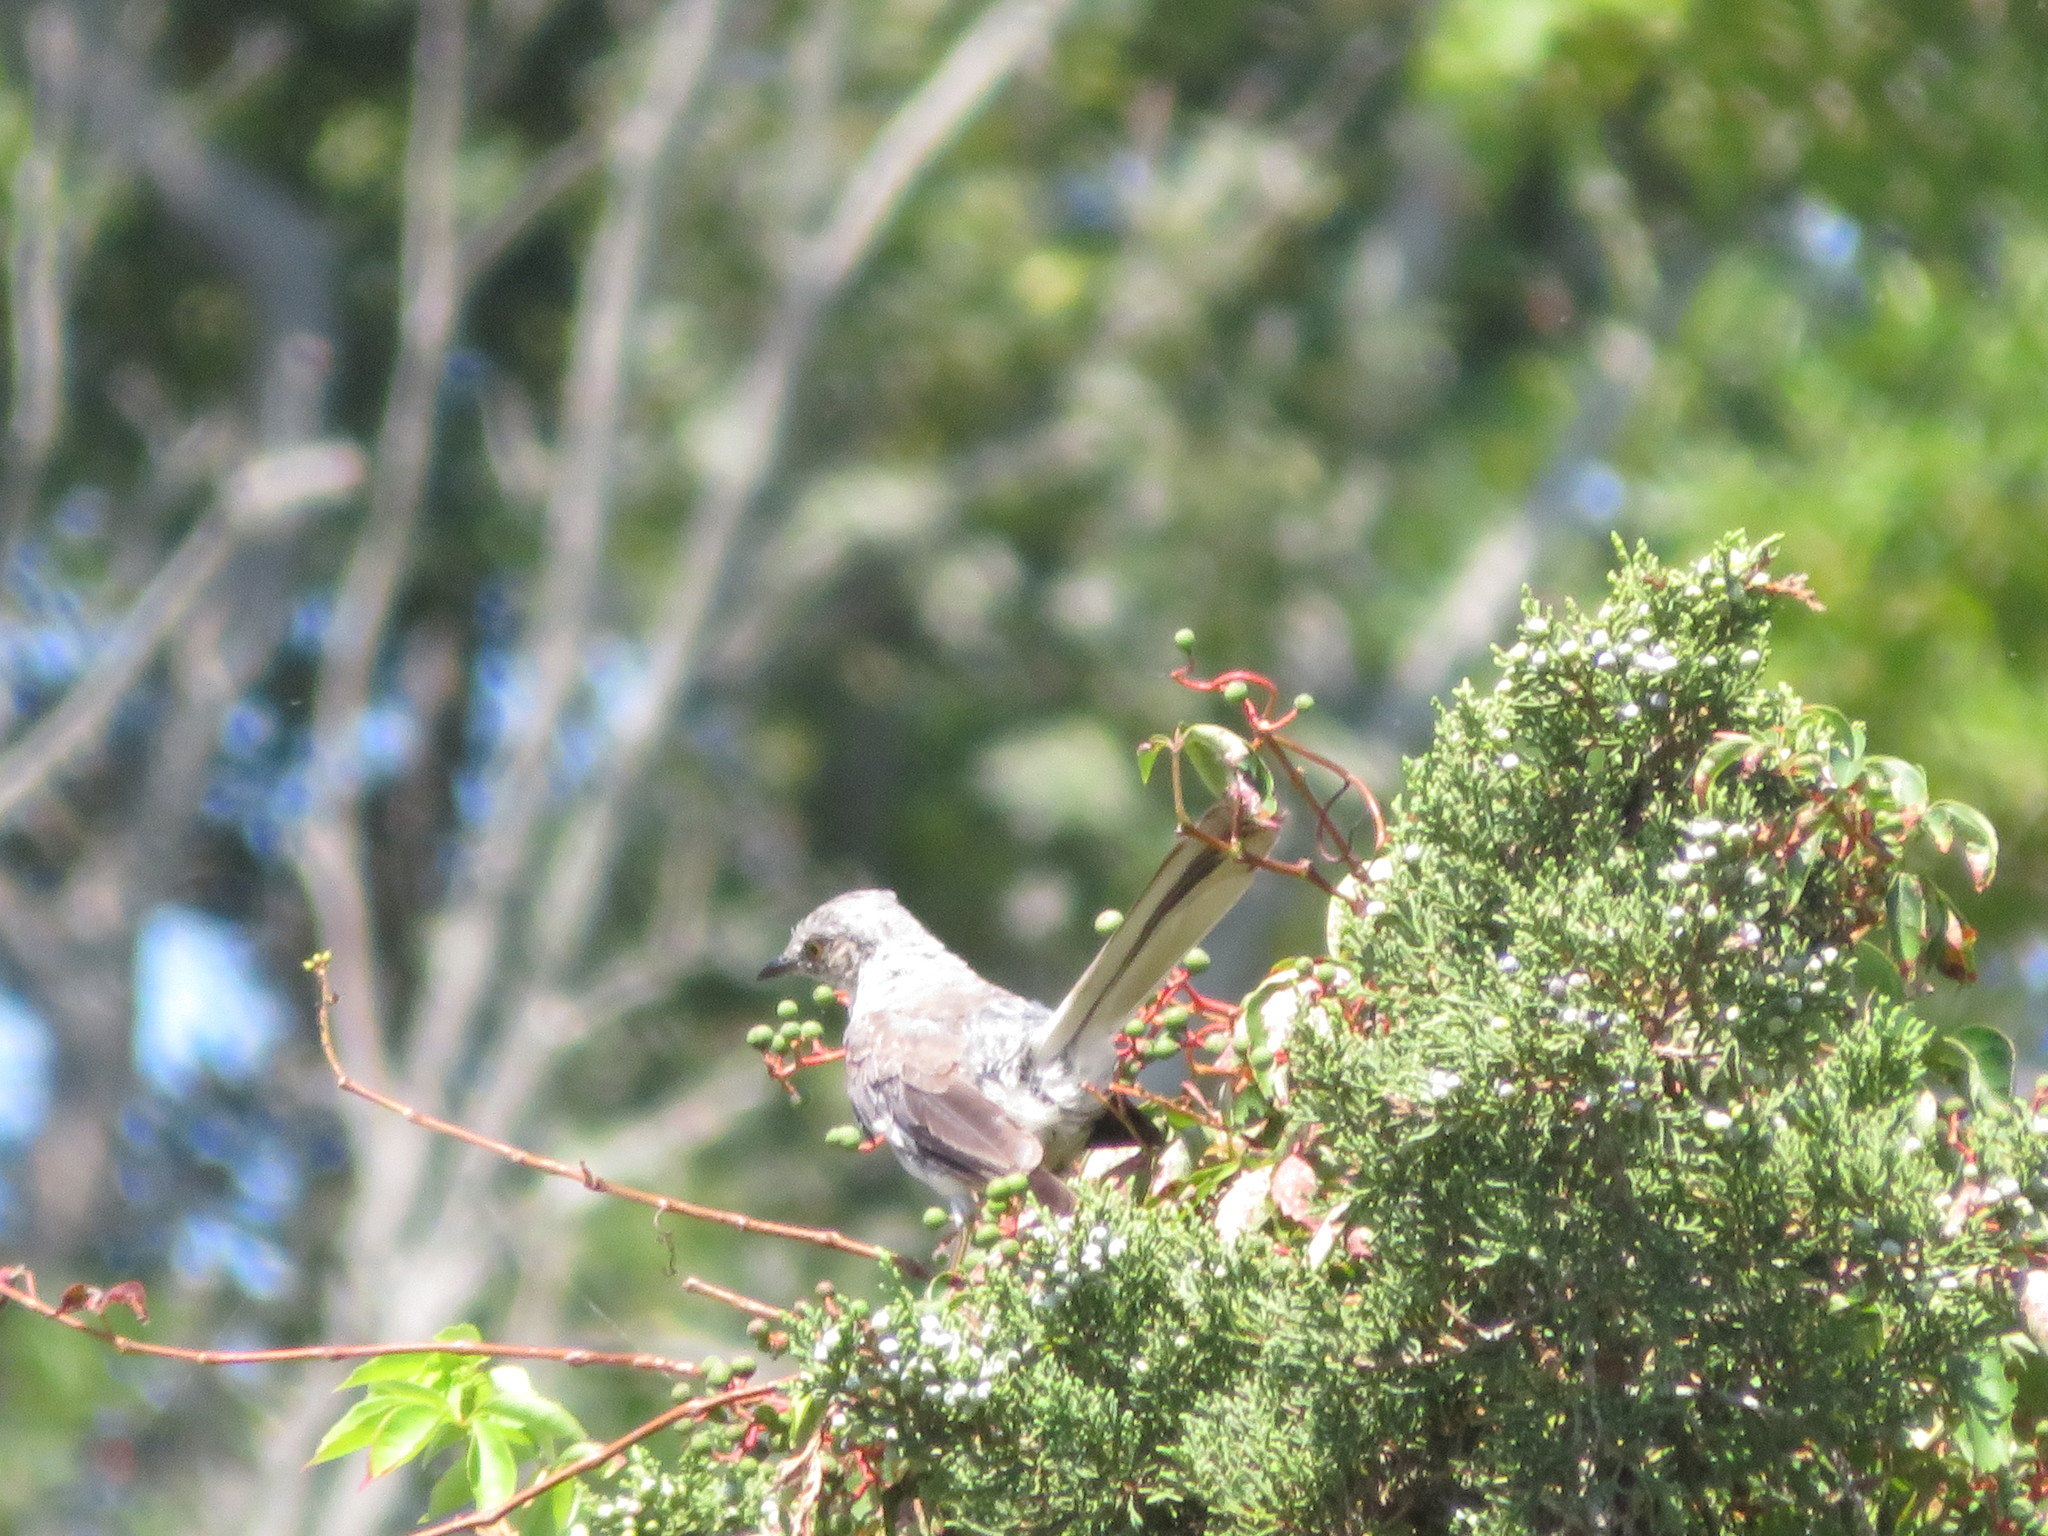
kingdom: Animalia
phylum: Chordata
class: Aves
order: Passeriformes
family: Mimidae
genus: Mimus
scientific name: Mimus polyglottos
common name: Northern mockingbird
